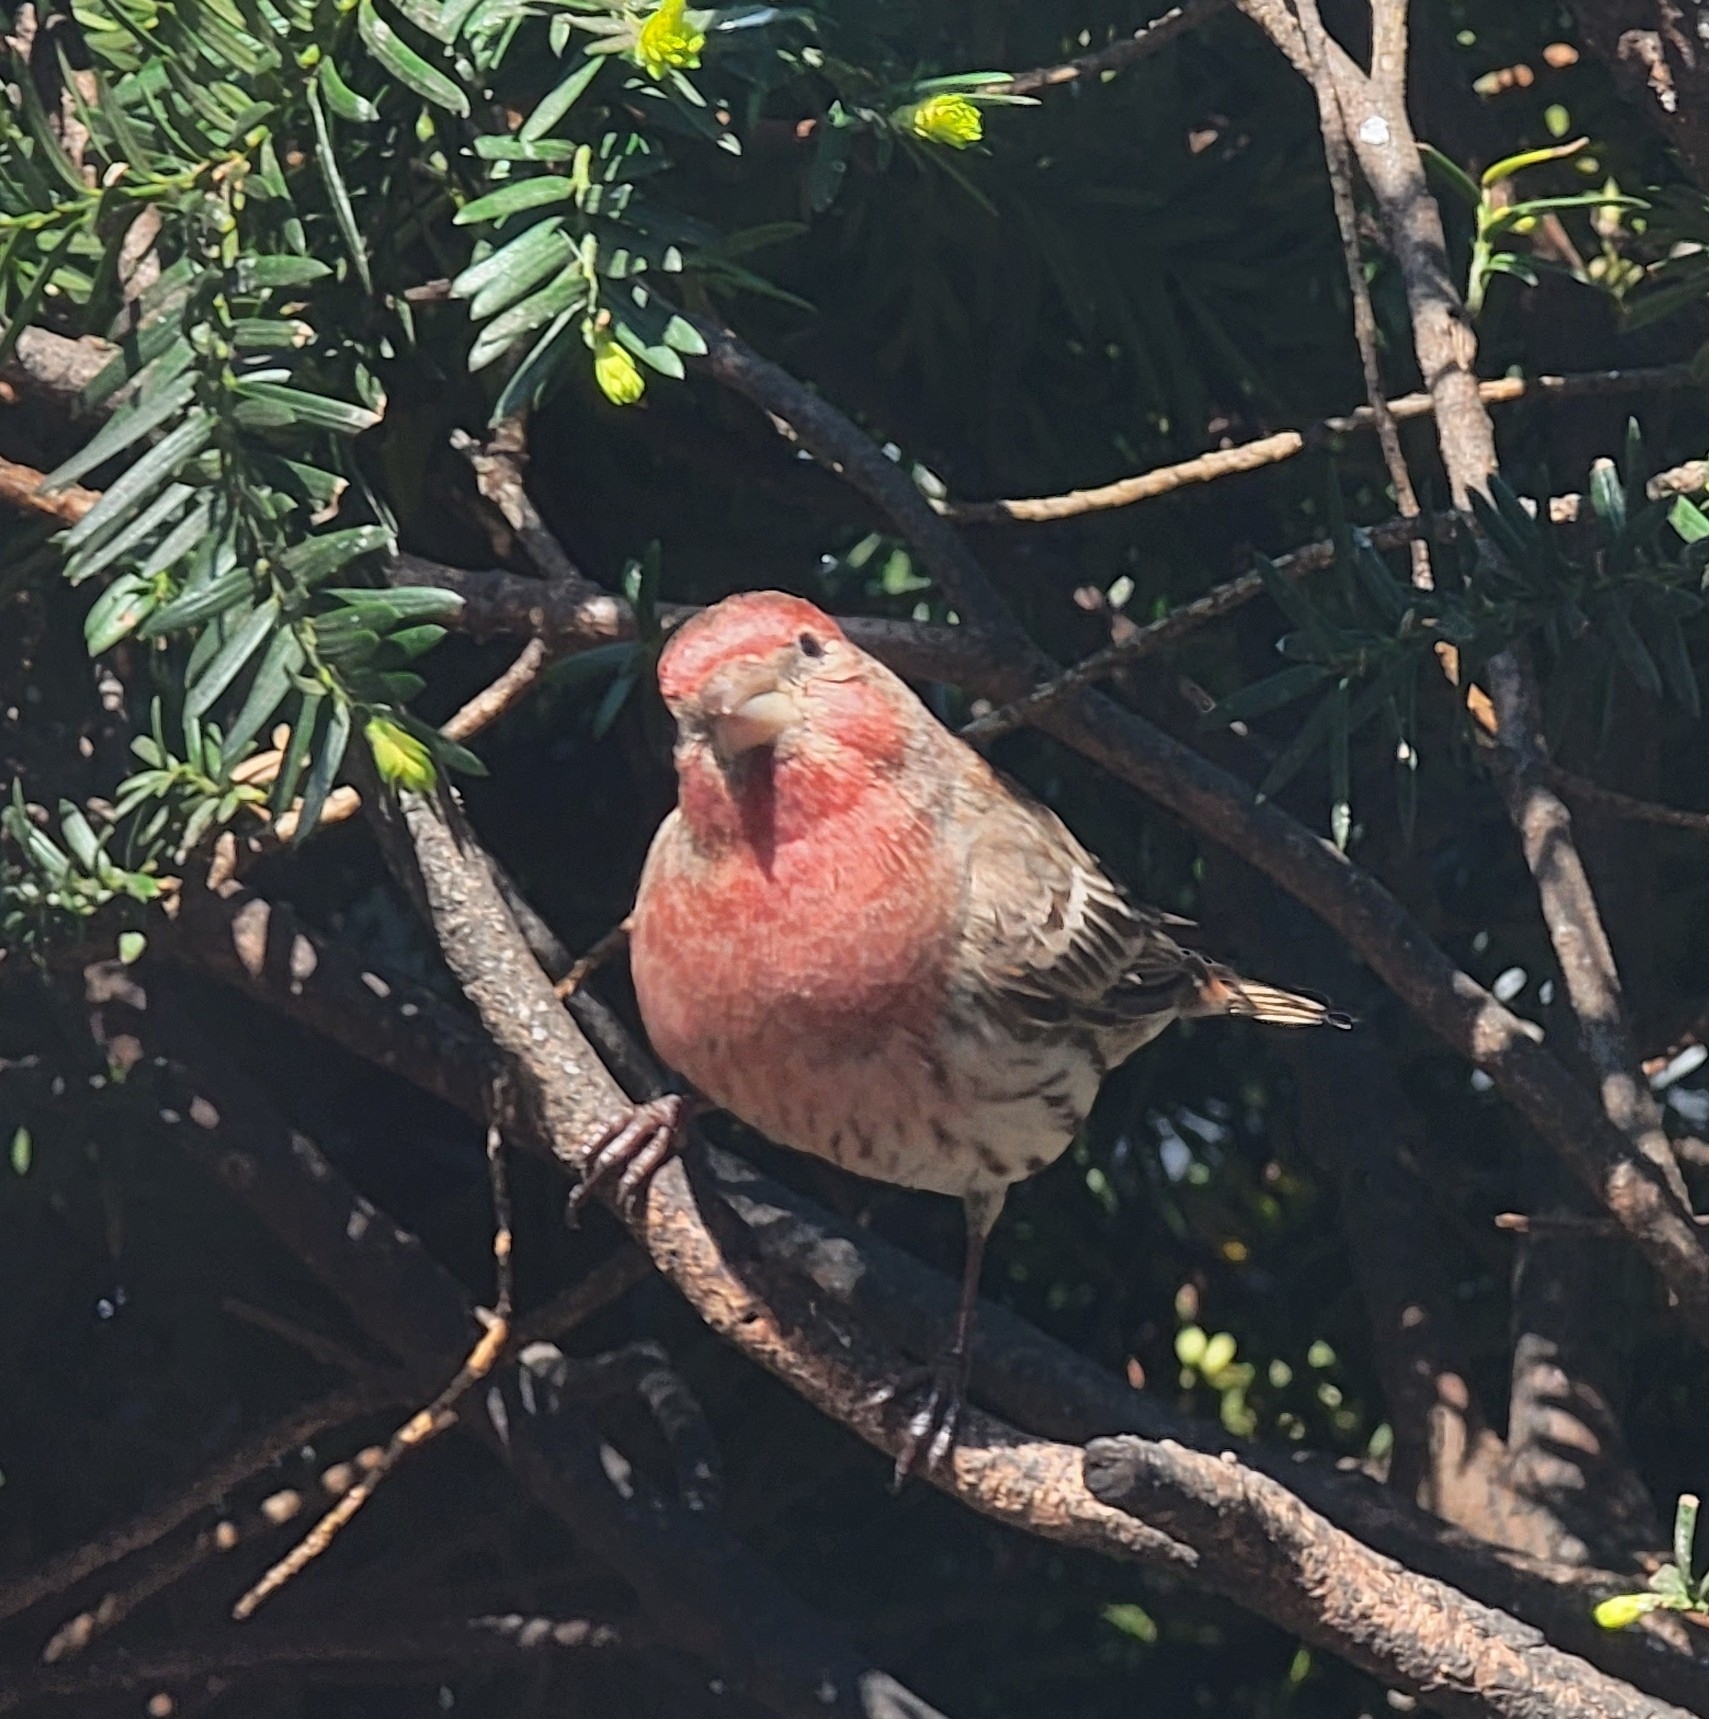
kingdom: Animalia
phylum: Chordata
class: Aves
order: Passeriformes
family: Fringillidae
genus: Haemorhous
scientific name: Haemorhous mexicanus
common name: House finch
